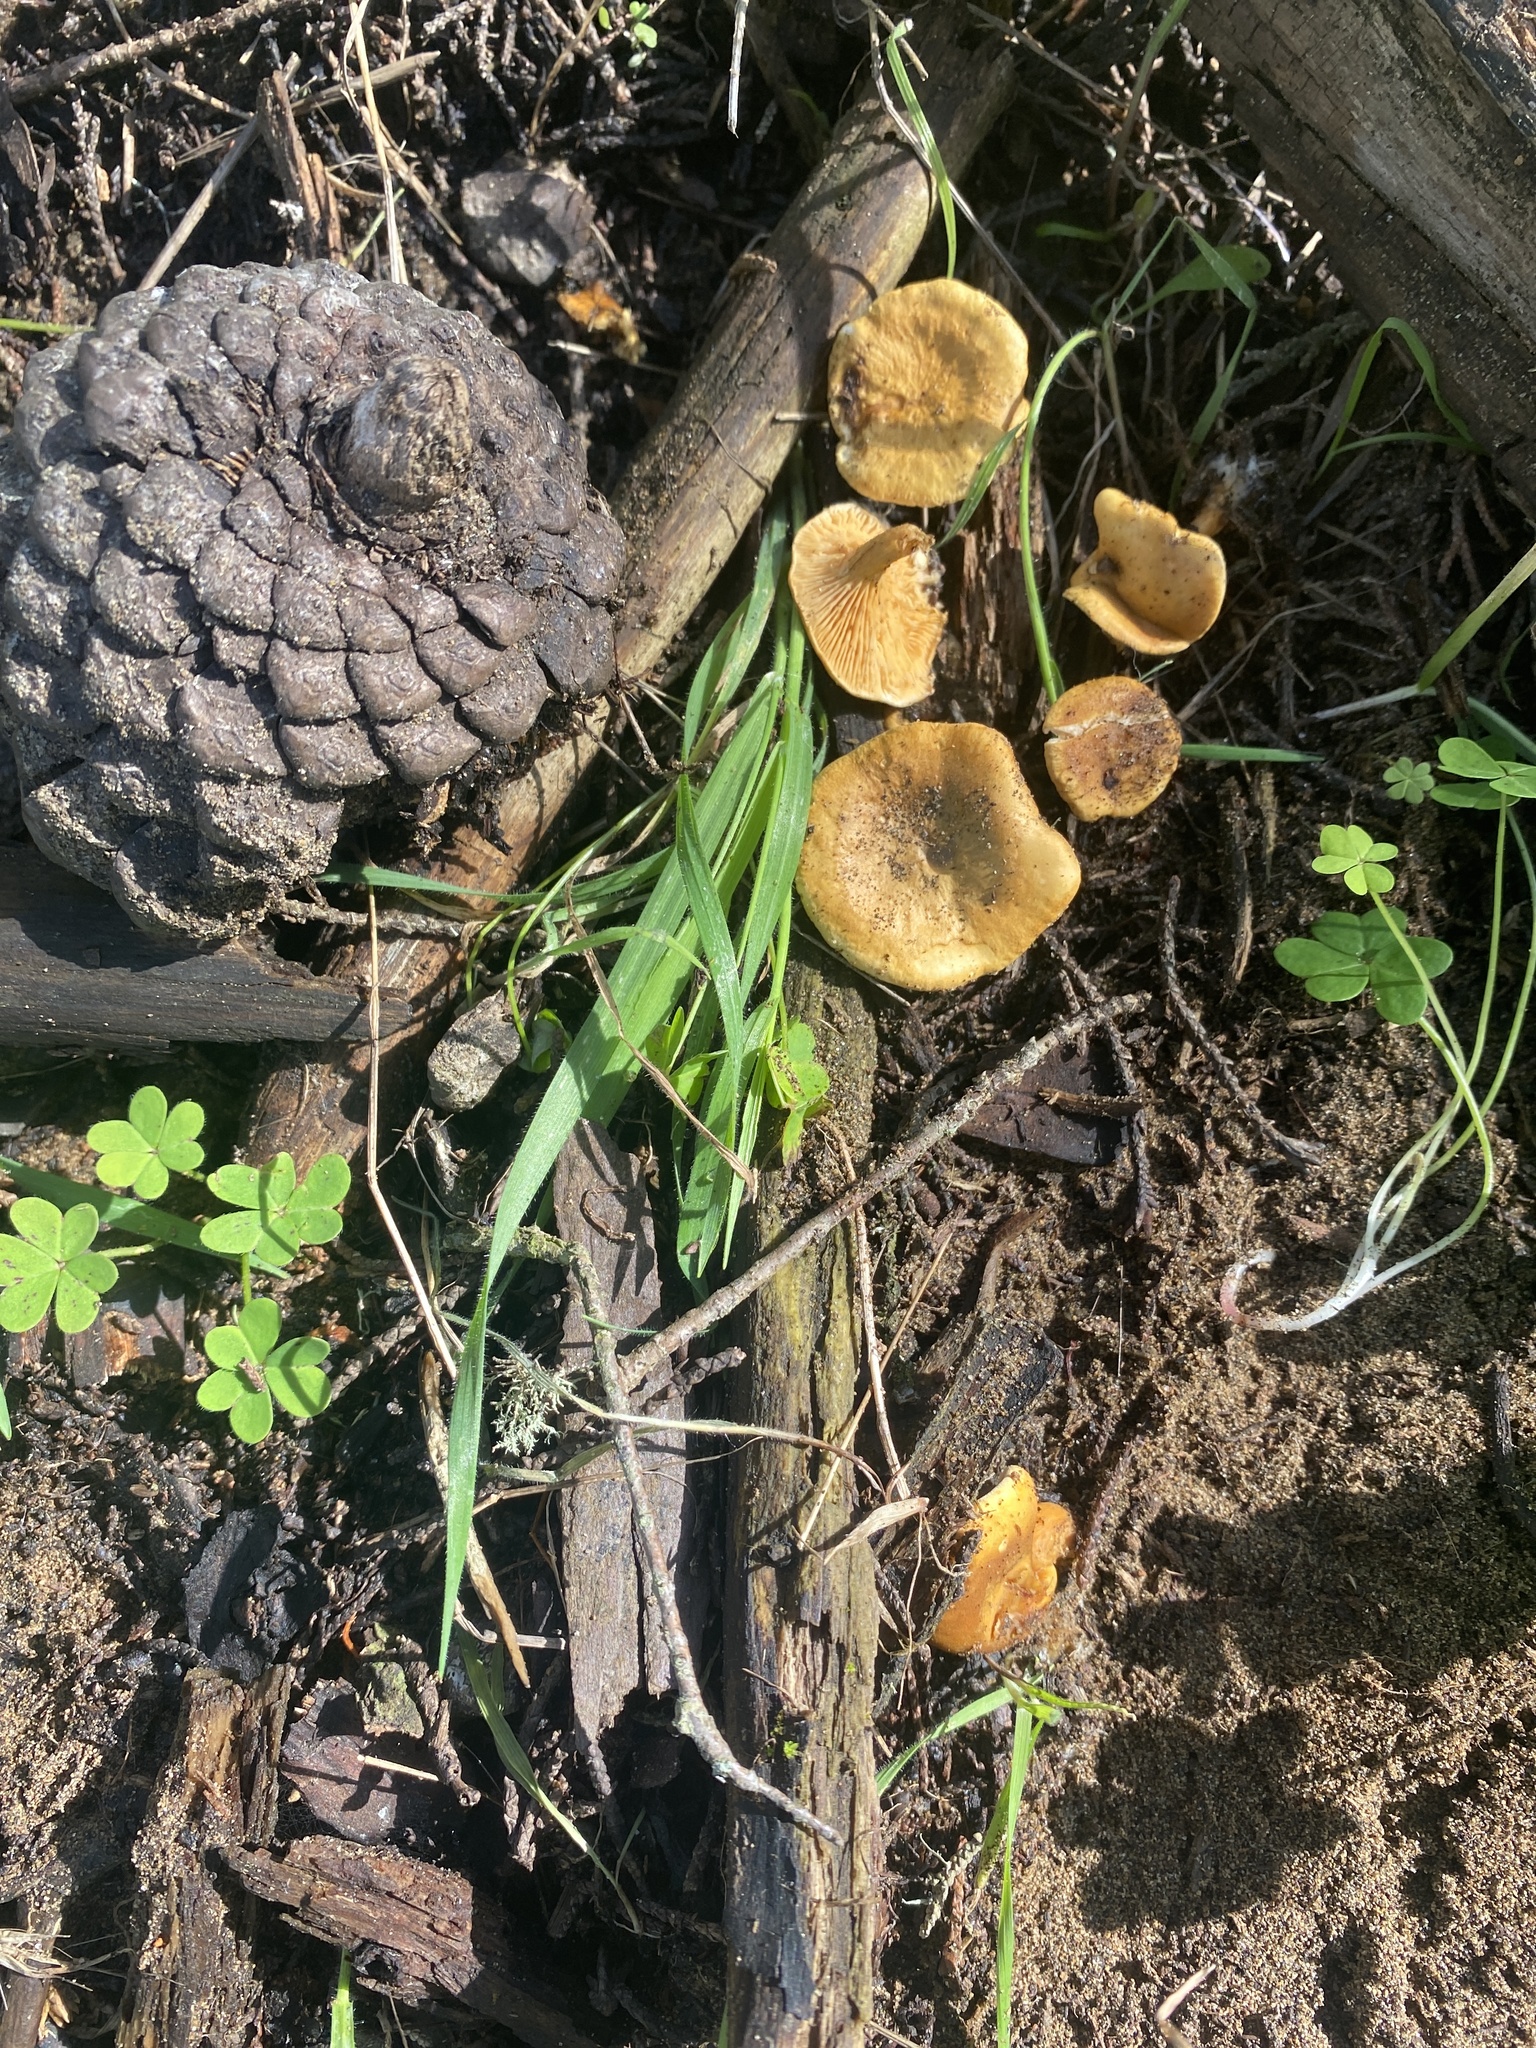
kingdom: Fungi
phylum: Basidiomycota
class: Agaricomycetes
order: Boletales
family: Hygrophoropsidaceae
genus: Hygrophoropsis
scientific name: Hygrophoropsis aurantiaca
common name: False chanterelle
